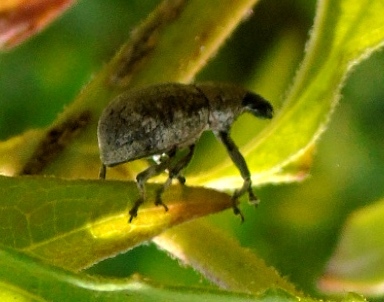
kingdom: Animalia
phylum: Arthropoda
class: Insecta
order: Coleoptera
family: Curculionidae
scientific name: Curculionidae
